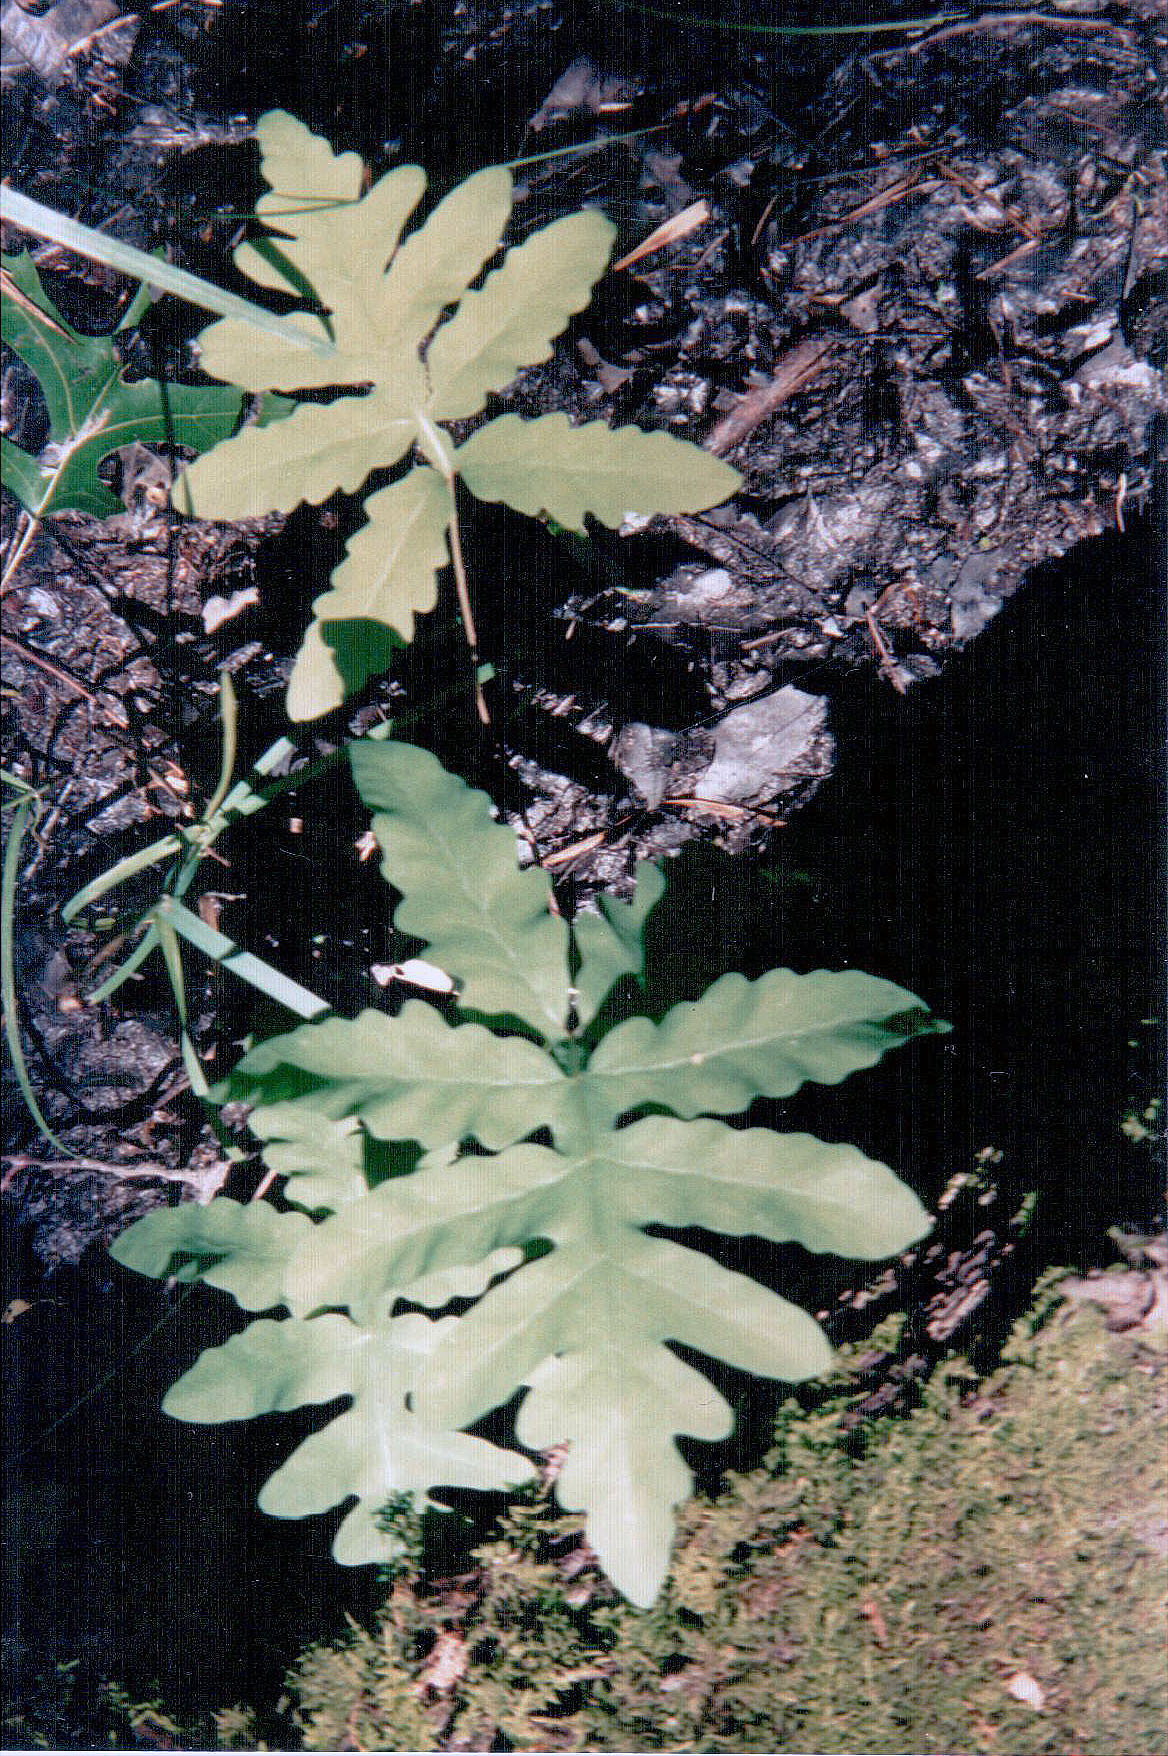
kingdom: Plantae
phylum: Tracheophyta
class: Polypodiopsida
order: Polypodiales
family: Onocleaceae
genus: Onoclea
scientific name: Onoclea sensibilis
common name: Sensitive fern
